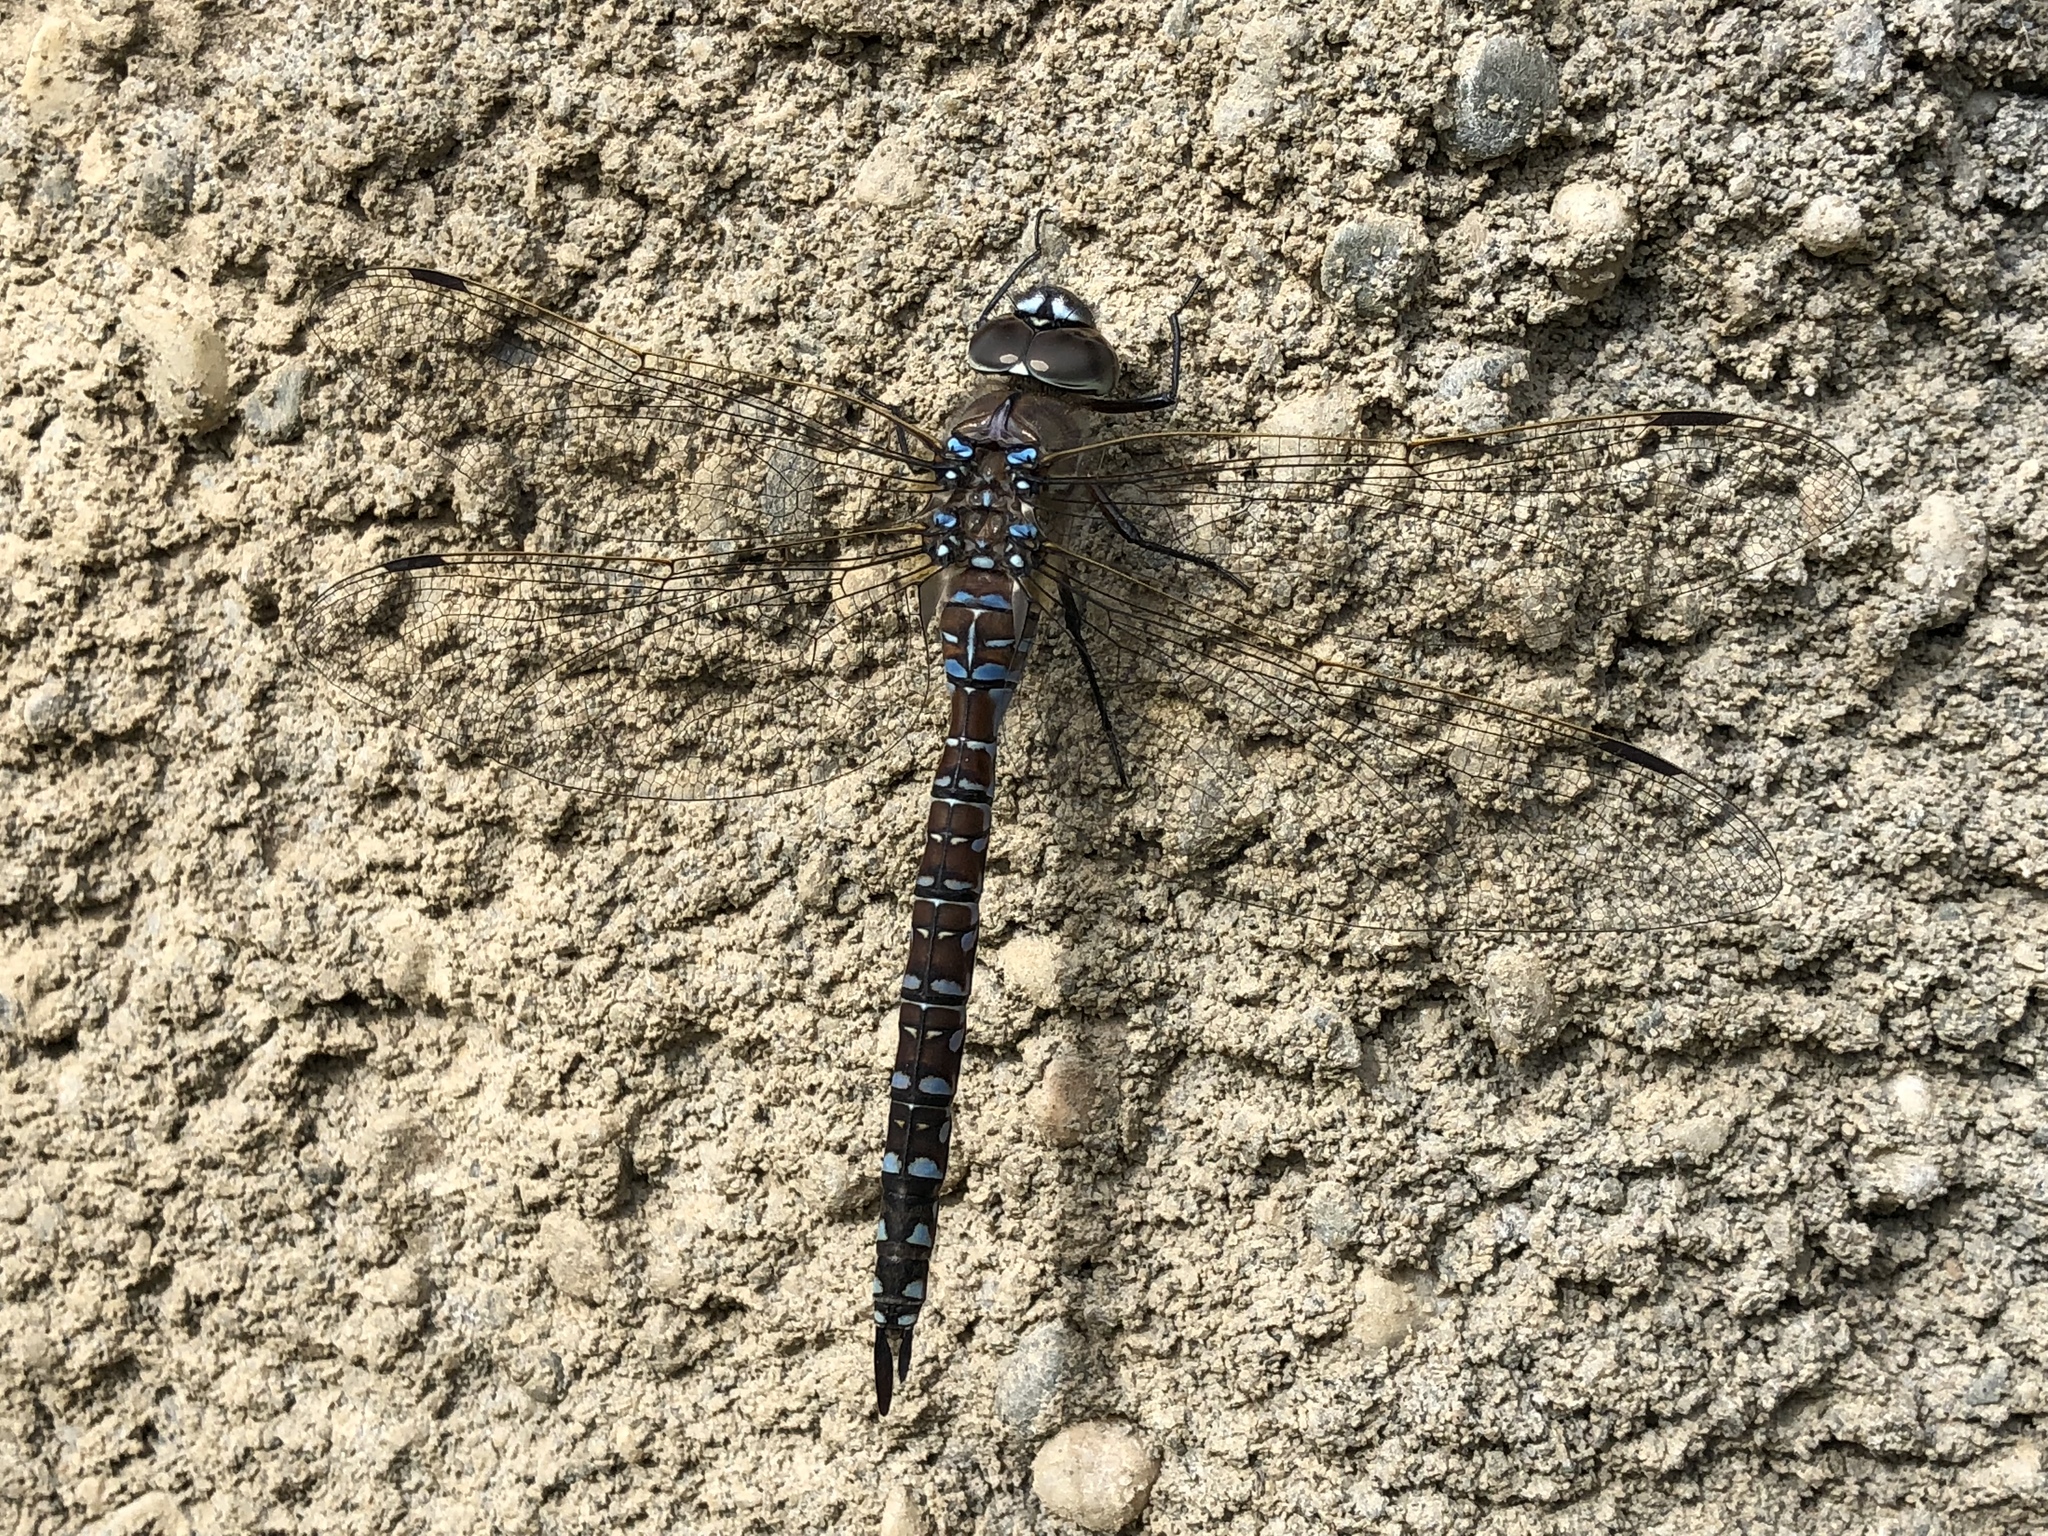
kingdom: Animalia
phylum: Arthropoda
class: Insecta
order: Odonata
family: Aeshnidae
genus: Aeshna
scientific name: Aeshna interrupta
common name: Variable darner
